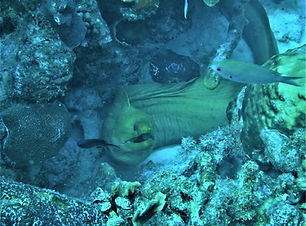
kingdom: Animalia
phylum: Chordata
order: Anguilliformes
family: Muraenidae
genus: Gymnothorax
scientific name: Gymnothorax funebris
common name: Green moray
